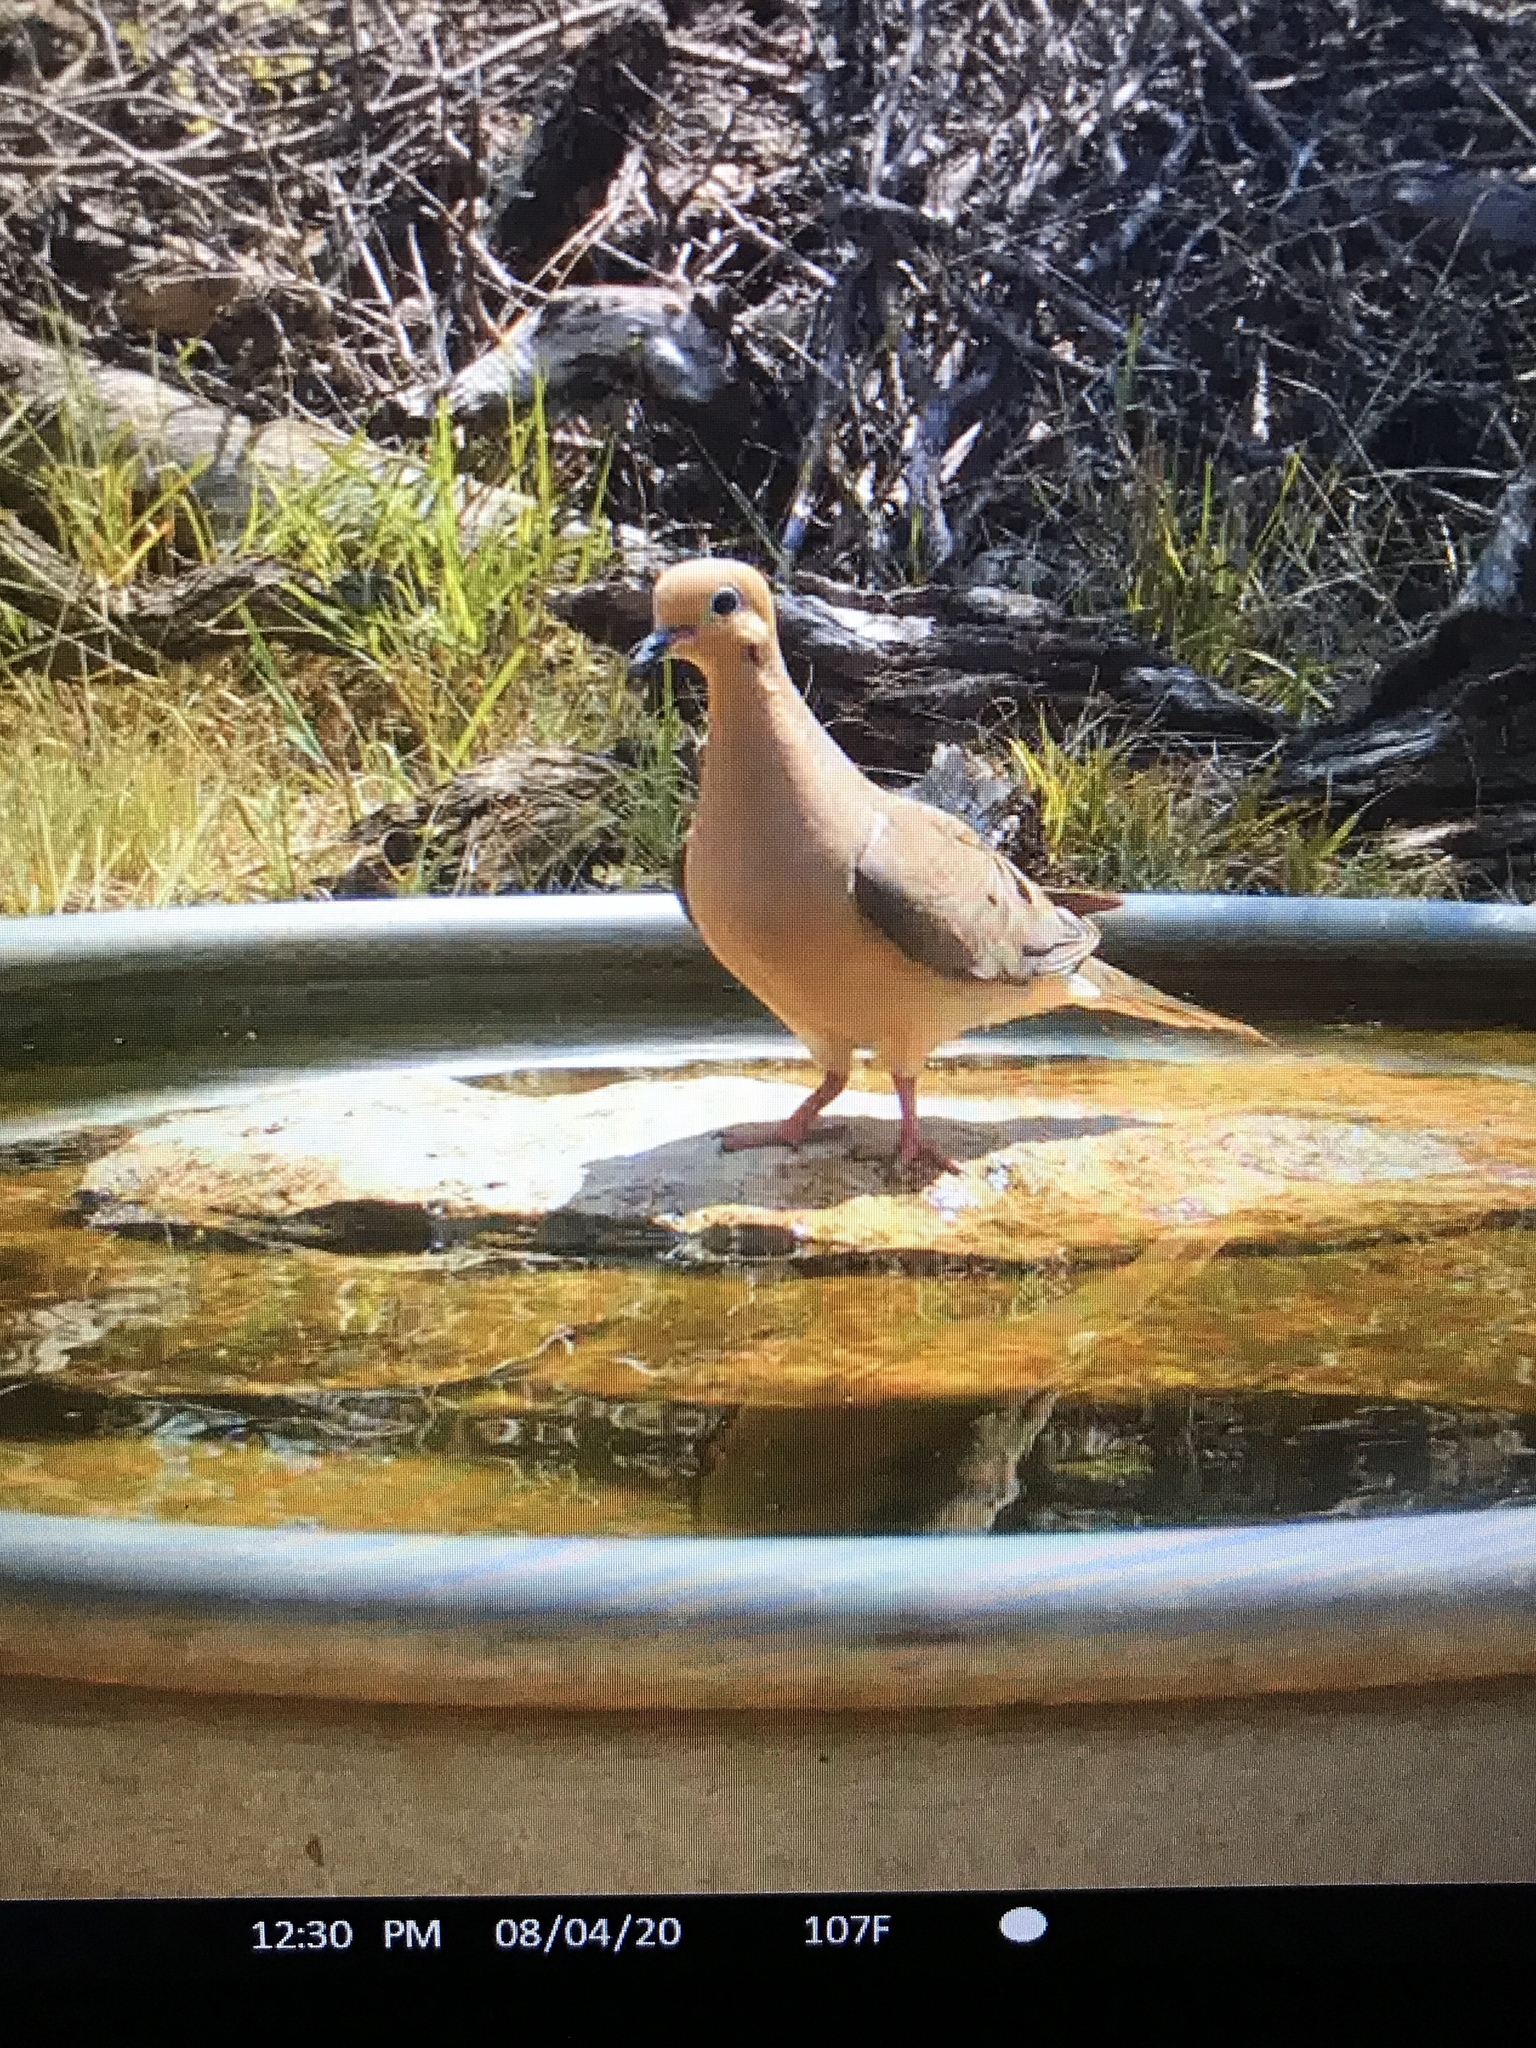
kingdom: Animalia
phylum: Chordata
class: Aves
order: Columbiformes
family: Columbidae
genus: Zenaida
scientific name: Zenaida macroura
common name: Mourning dove
